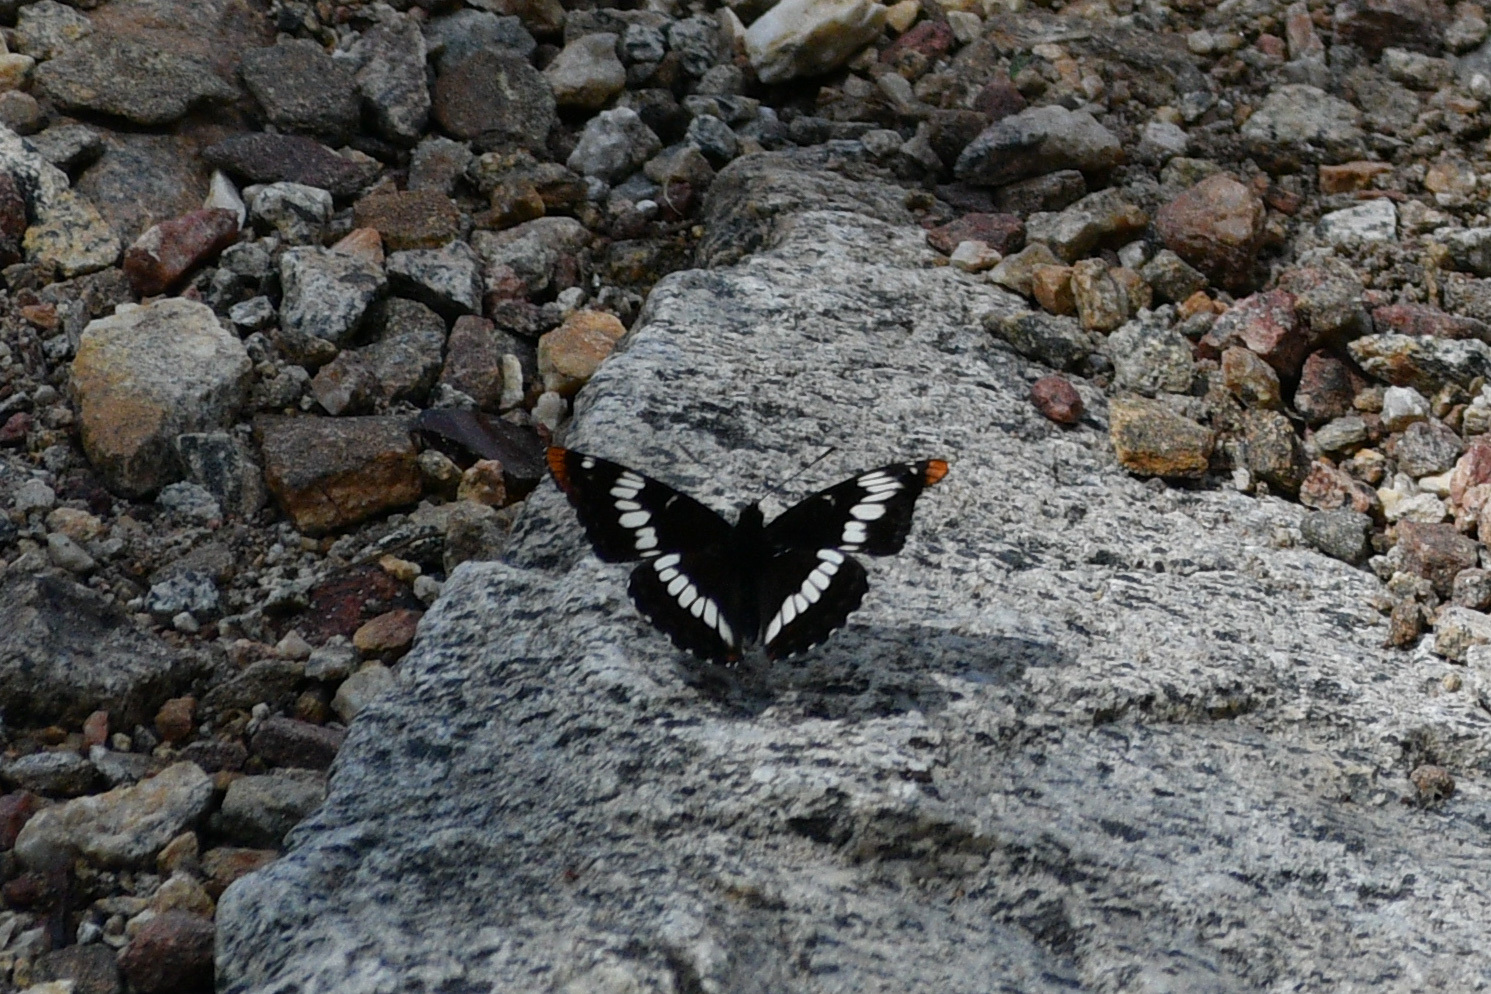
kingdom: Animalia
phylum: Arthropoda
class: Insecta
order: Lepidoptera
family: Nymphalidae
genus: Limenitis
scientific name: Limenitis lorquini
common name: Lorquin's admiral
